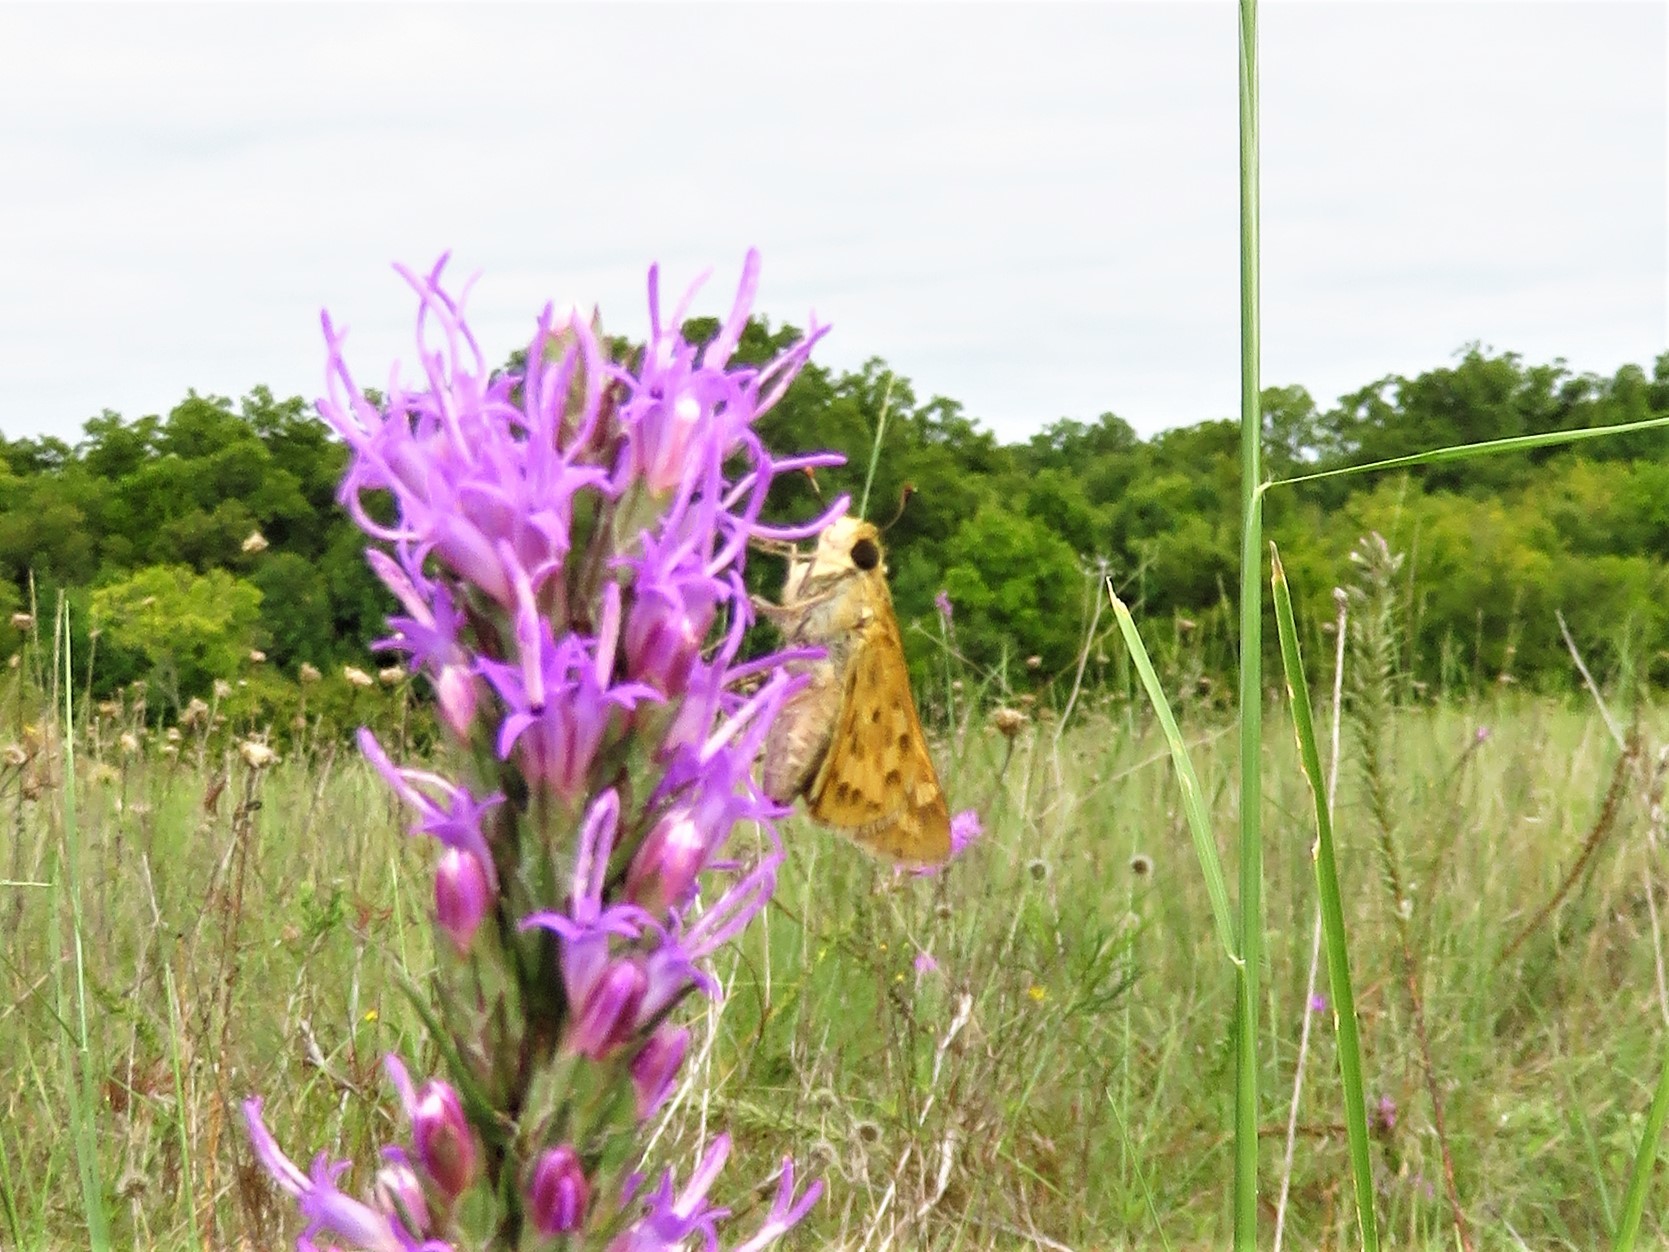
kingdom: Animalia
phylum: Arthropoda
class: Insecta
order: Lepidoptera
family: Hesperiidae
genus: Hylephila
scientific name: Hylephila phyleus
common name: Fiery skipper
